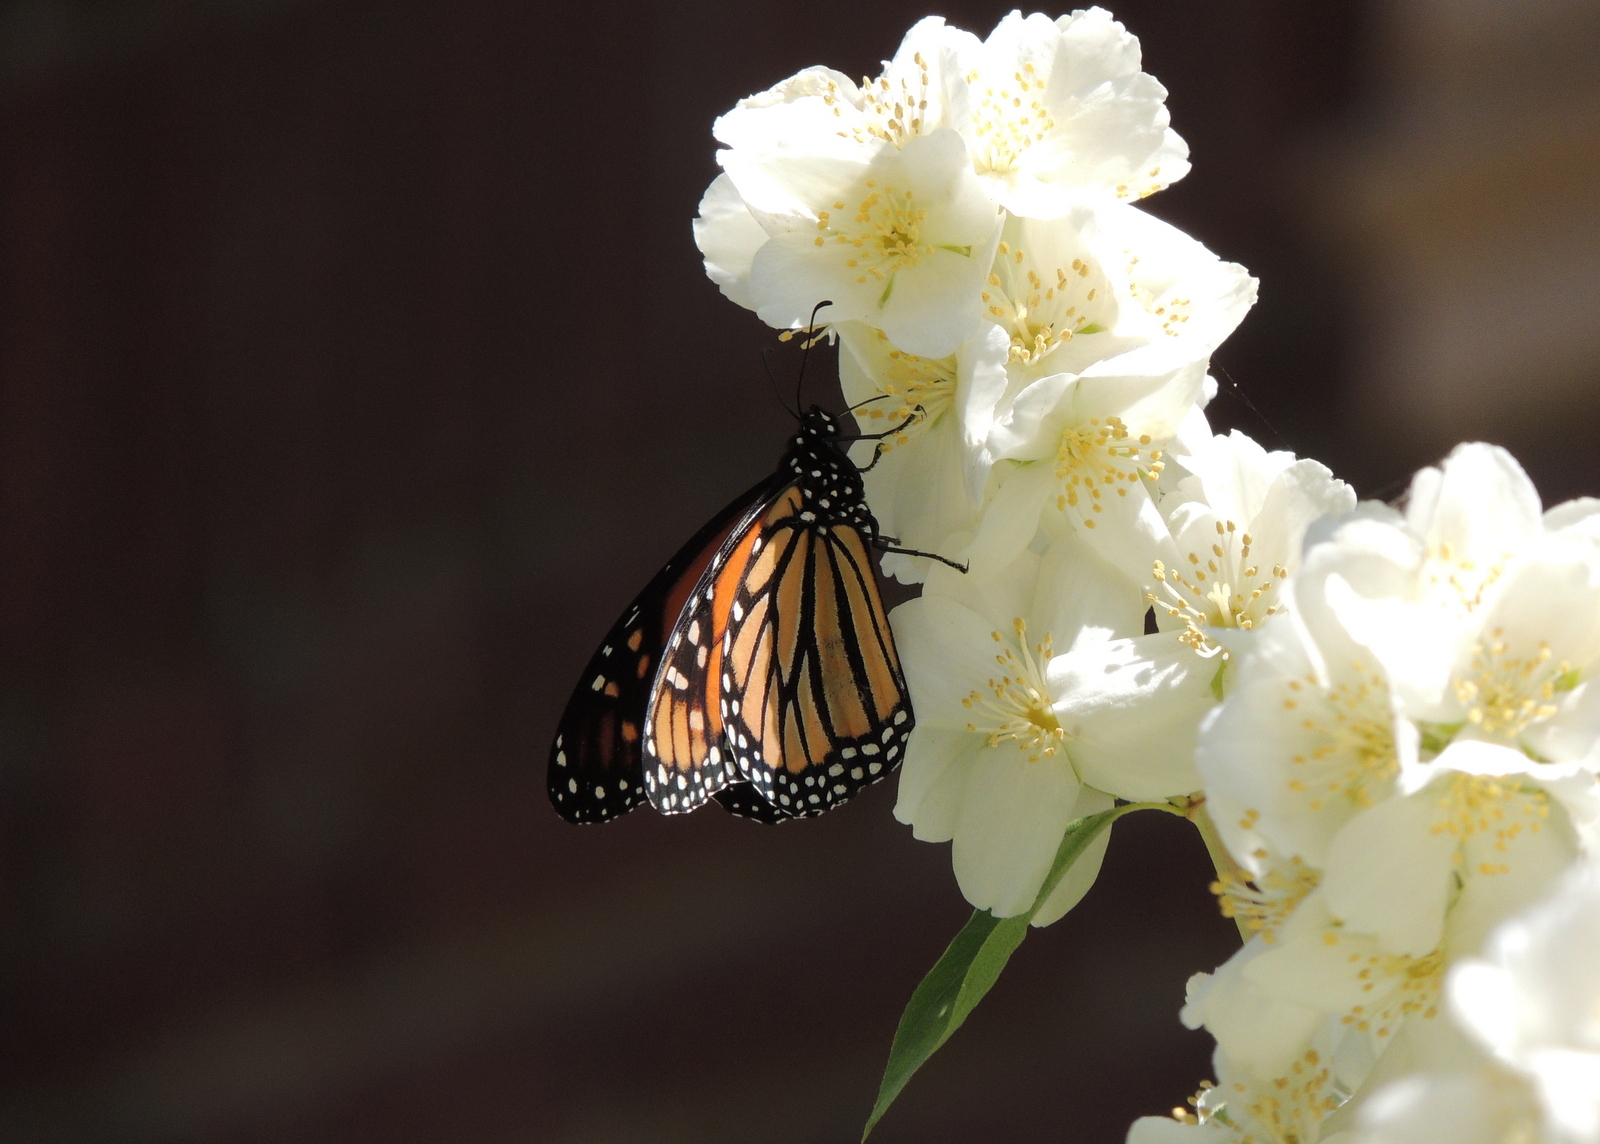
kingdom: Animalia
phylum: Arthropoda
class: Insecta
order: Lepidoptera
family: Nymphalidae
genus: Danaus
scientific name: Danaus plexippus
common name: Monarch
